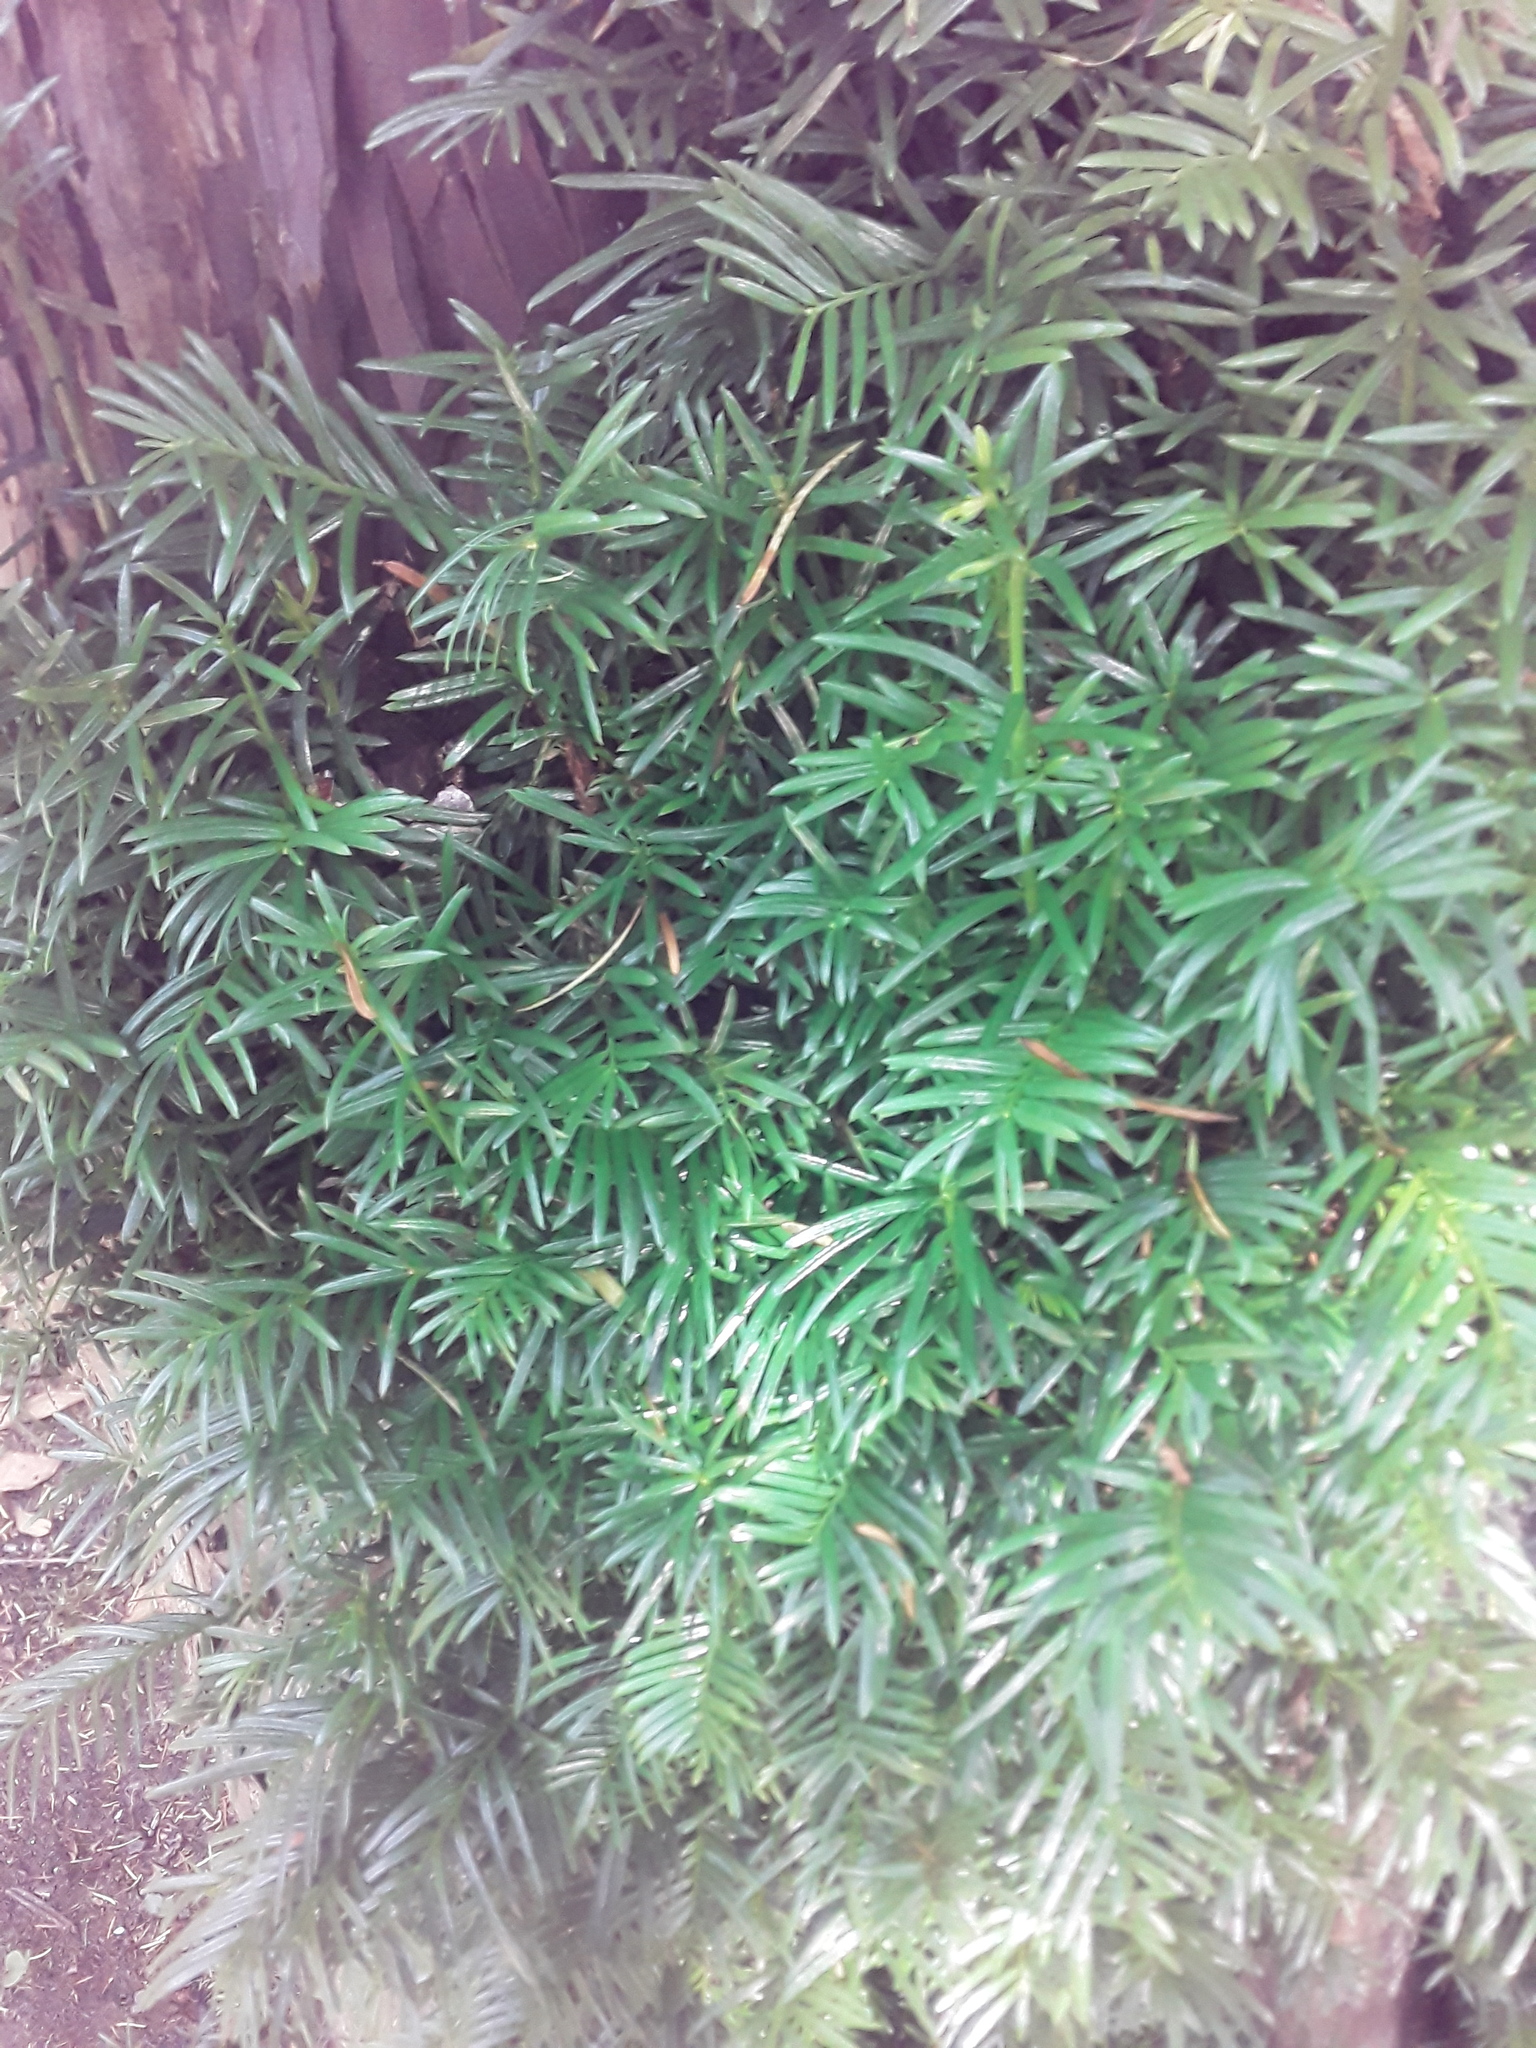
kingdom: Plantae
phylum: Tracheophyta
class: Pinopsida
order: Pinales
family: Taxaceae
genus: Taxus
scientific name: Taxus baccata
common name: Yew
